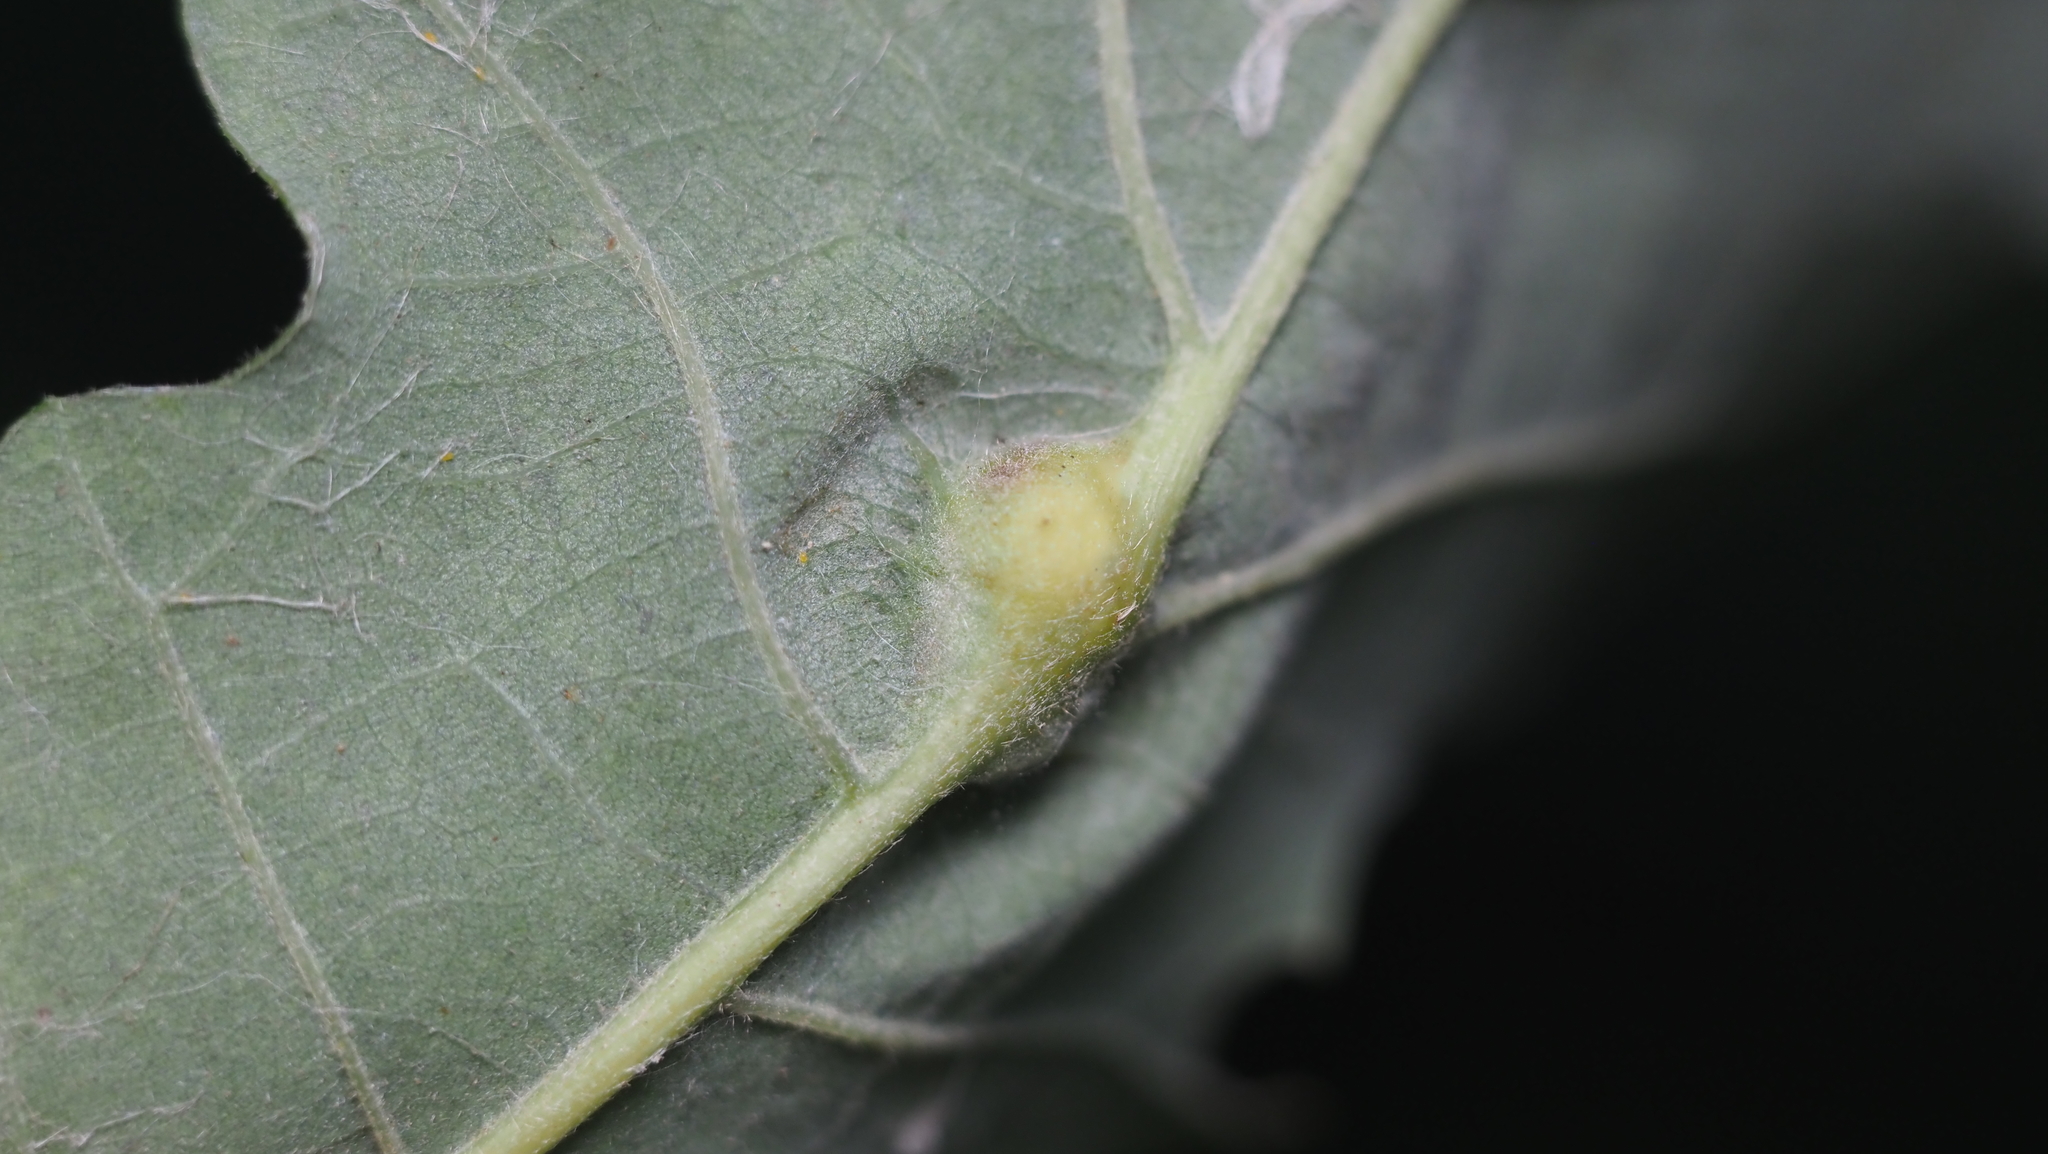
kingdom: Animalia
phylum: Arthropoda
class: Insecta
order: Hymenoptera
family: Cynipidae
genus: Bassettia
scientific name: Bassettia flavipes
